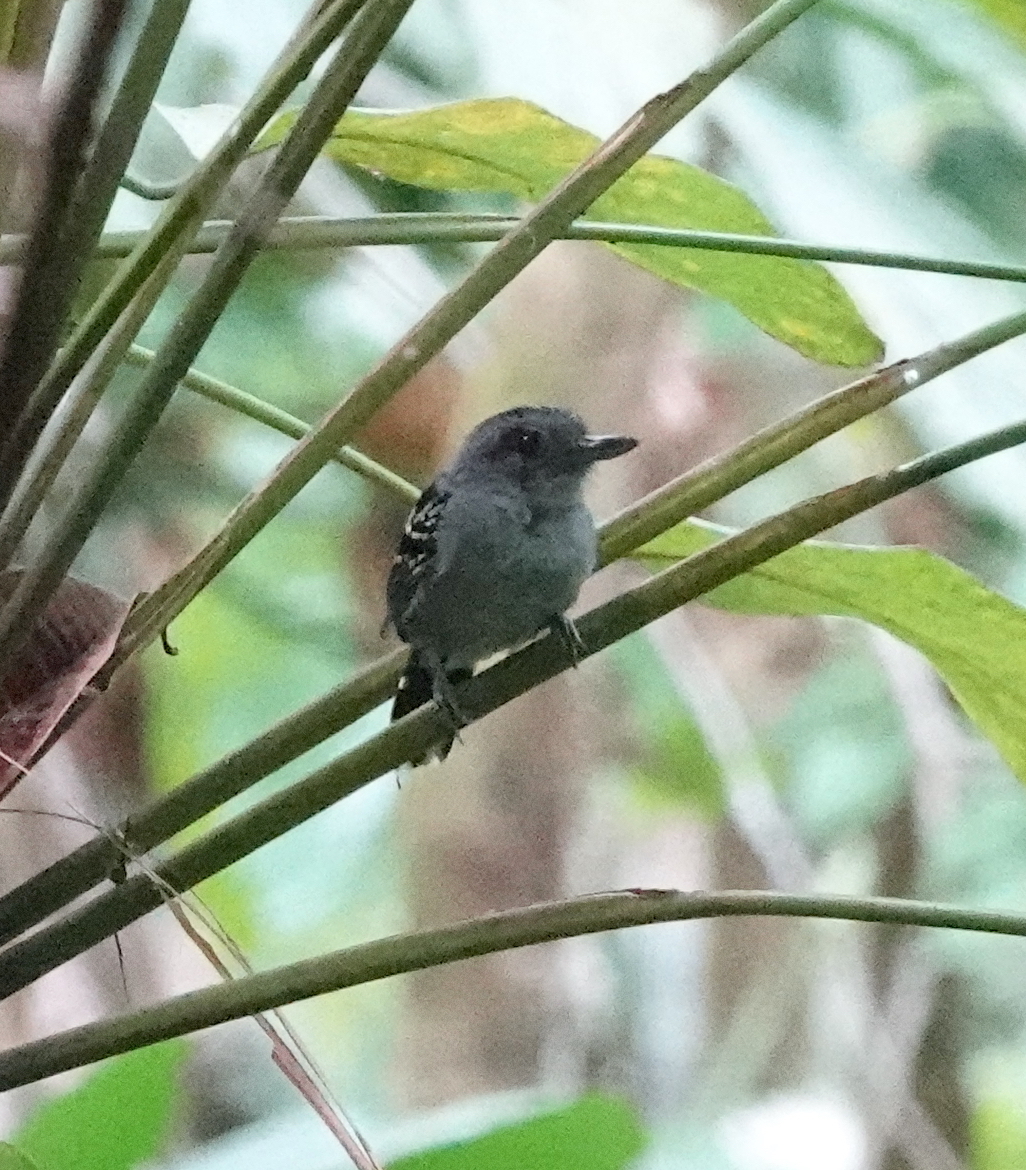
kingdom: Animalia
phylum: Chordata
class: Aves
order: Passeriformes
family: Thamnophilidae
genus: Thamnophilus
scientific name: Thamnophilus atrinucha
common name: Black-crowned antshrike
